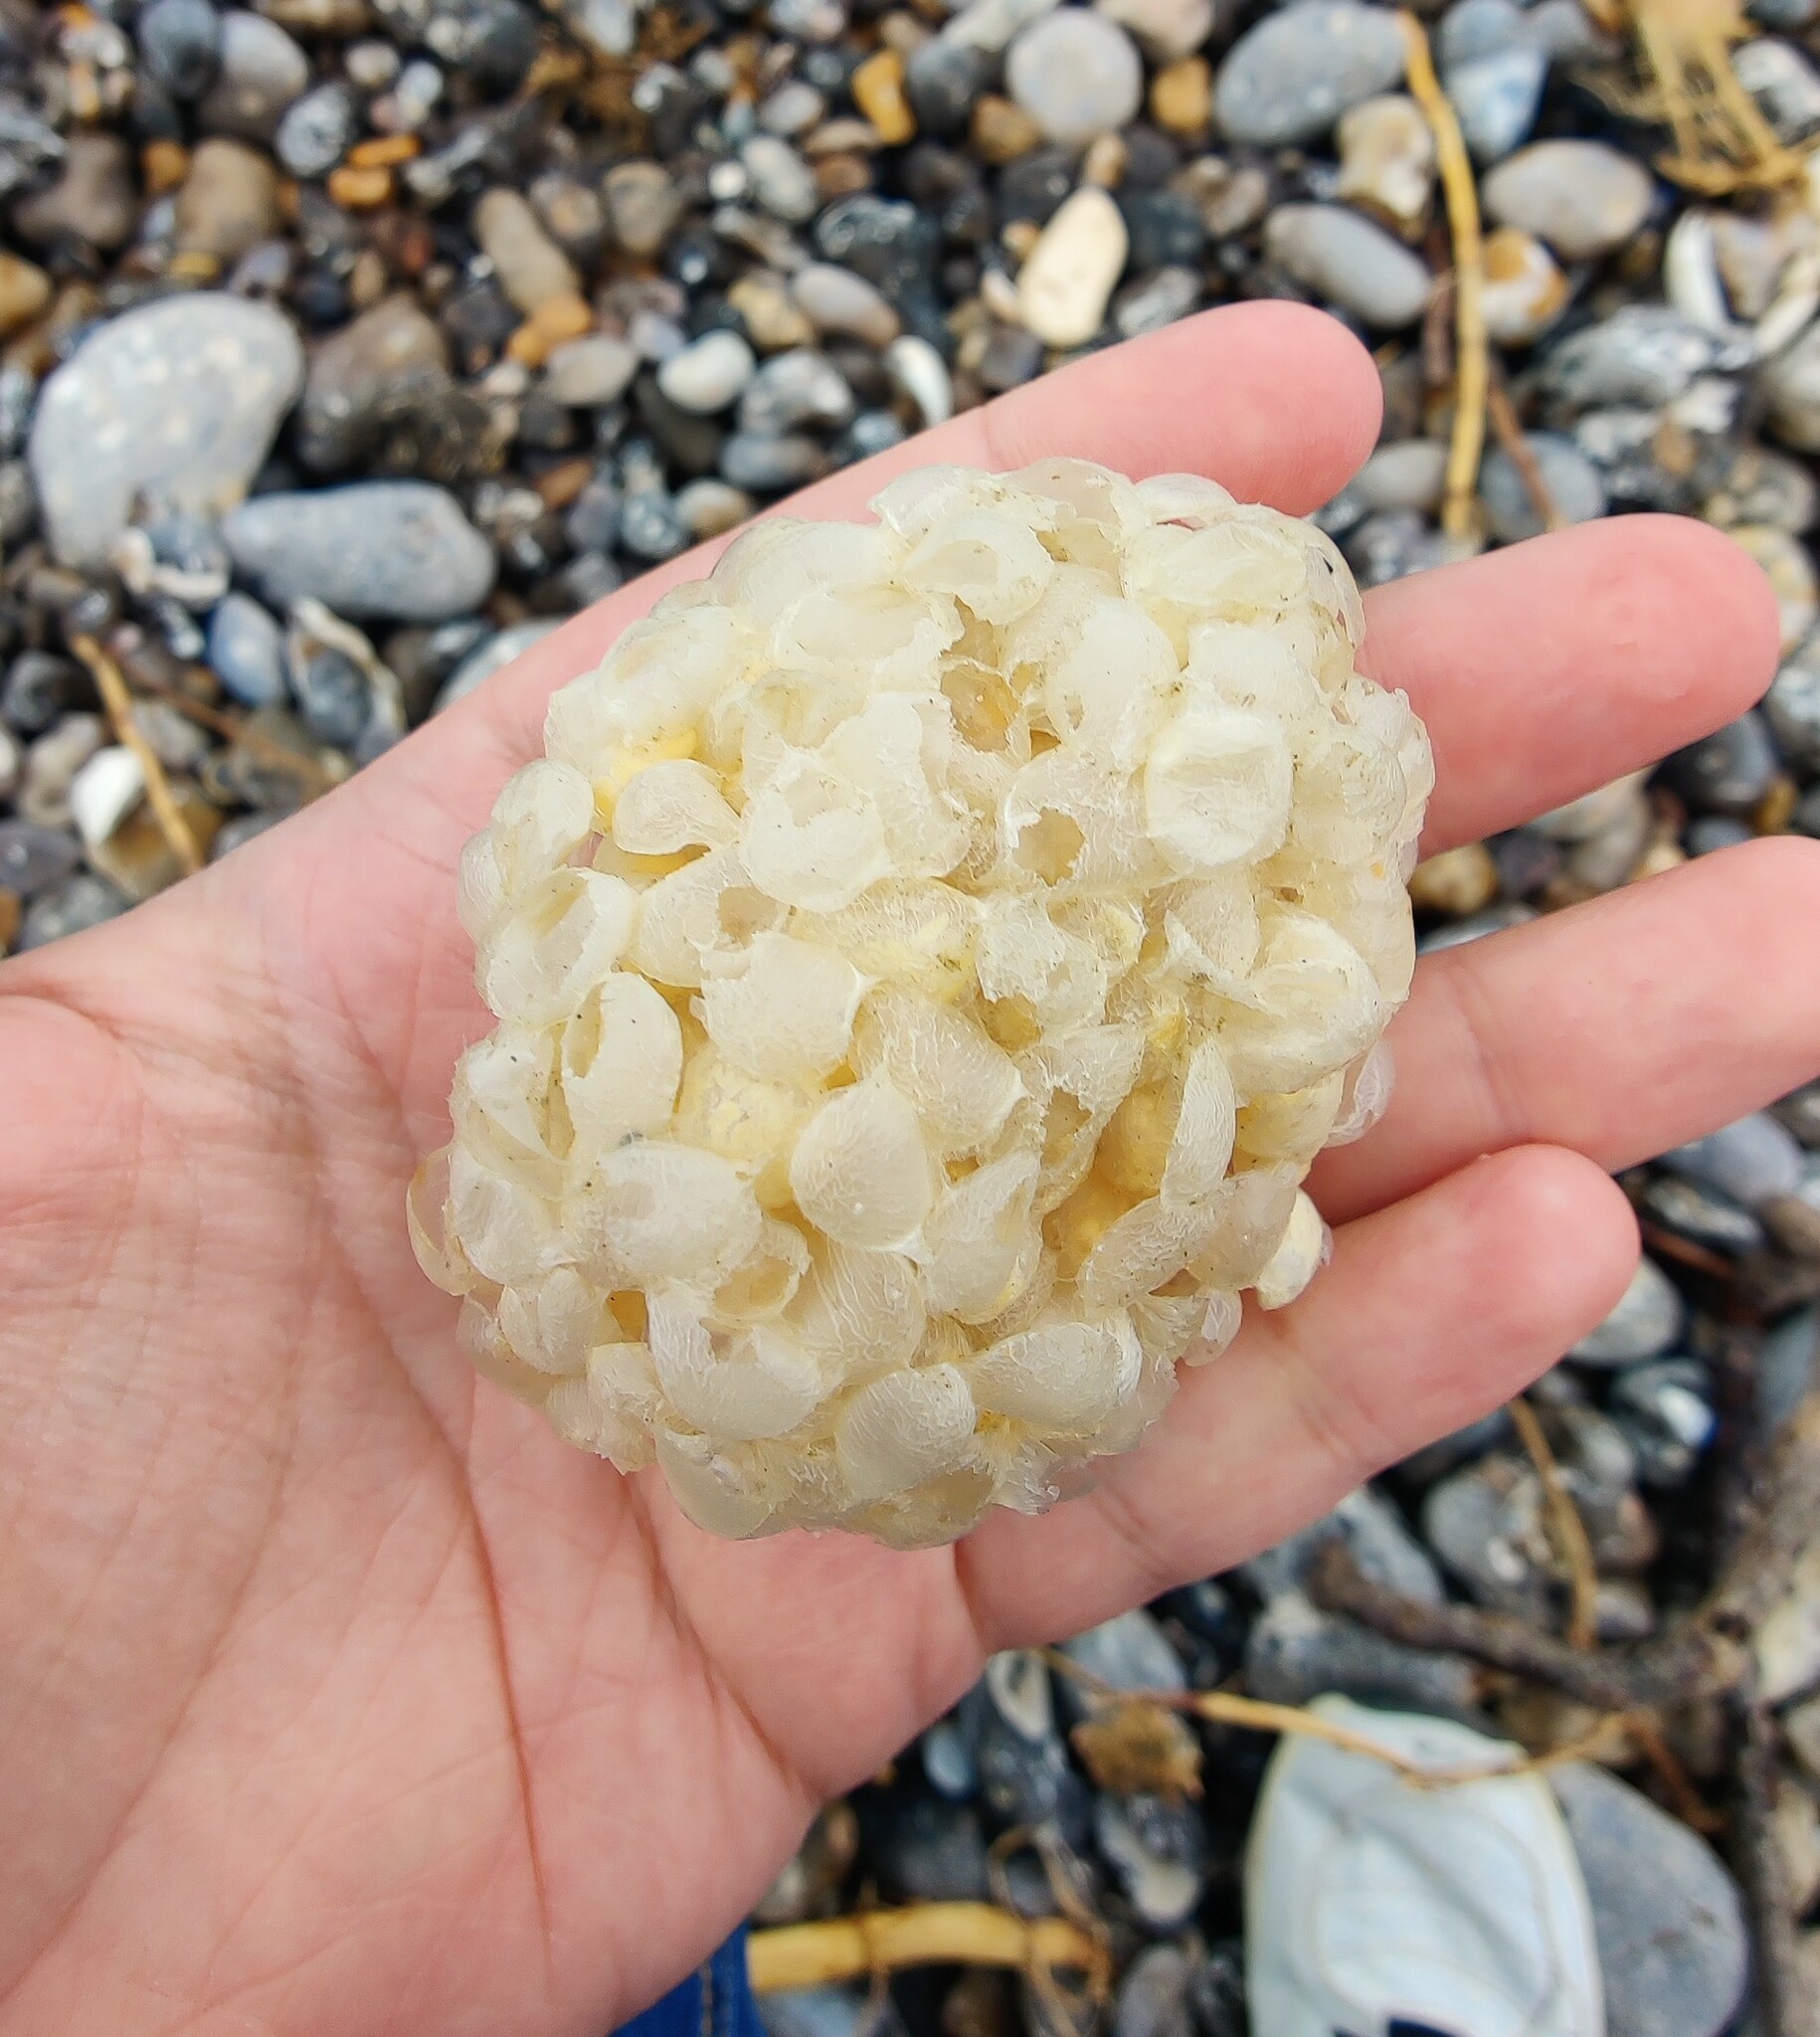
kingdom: Animalia
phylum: Mollusca
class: Gastropoda
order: Neogastropoda
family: Buccinidae
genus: Buccinum
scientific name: Buccinum undatum
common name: Common whelk
